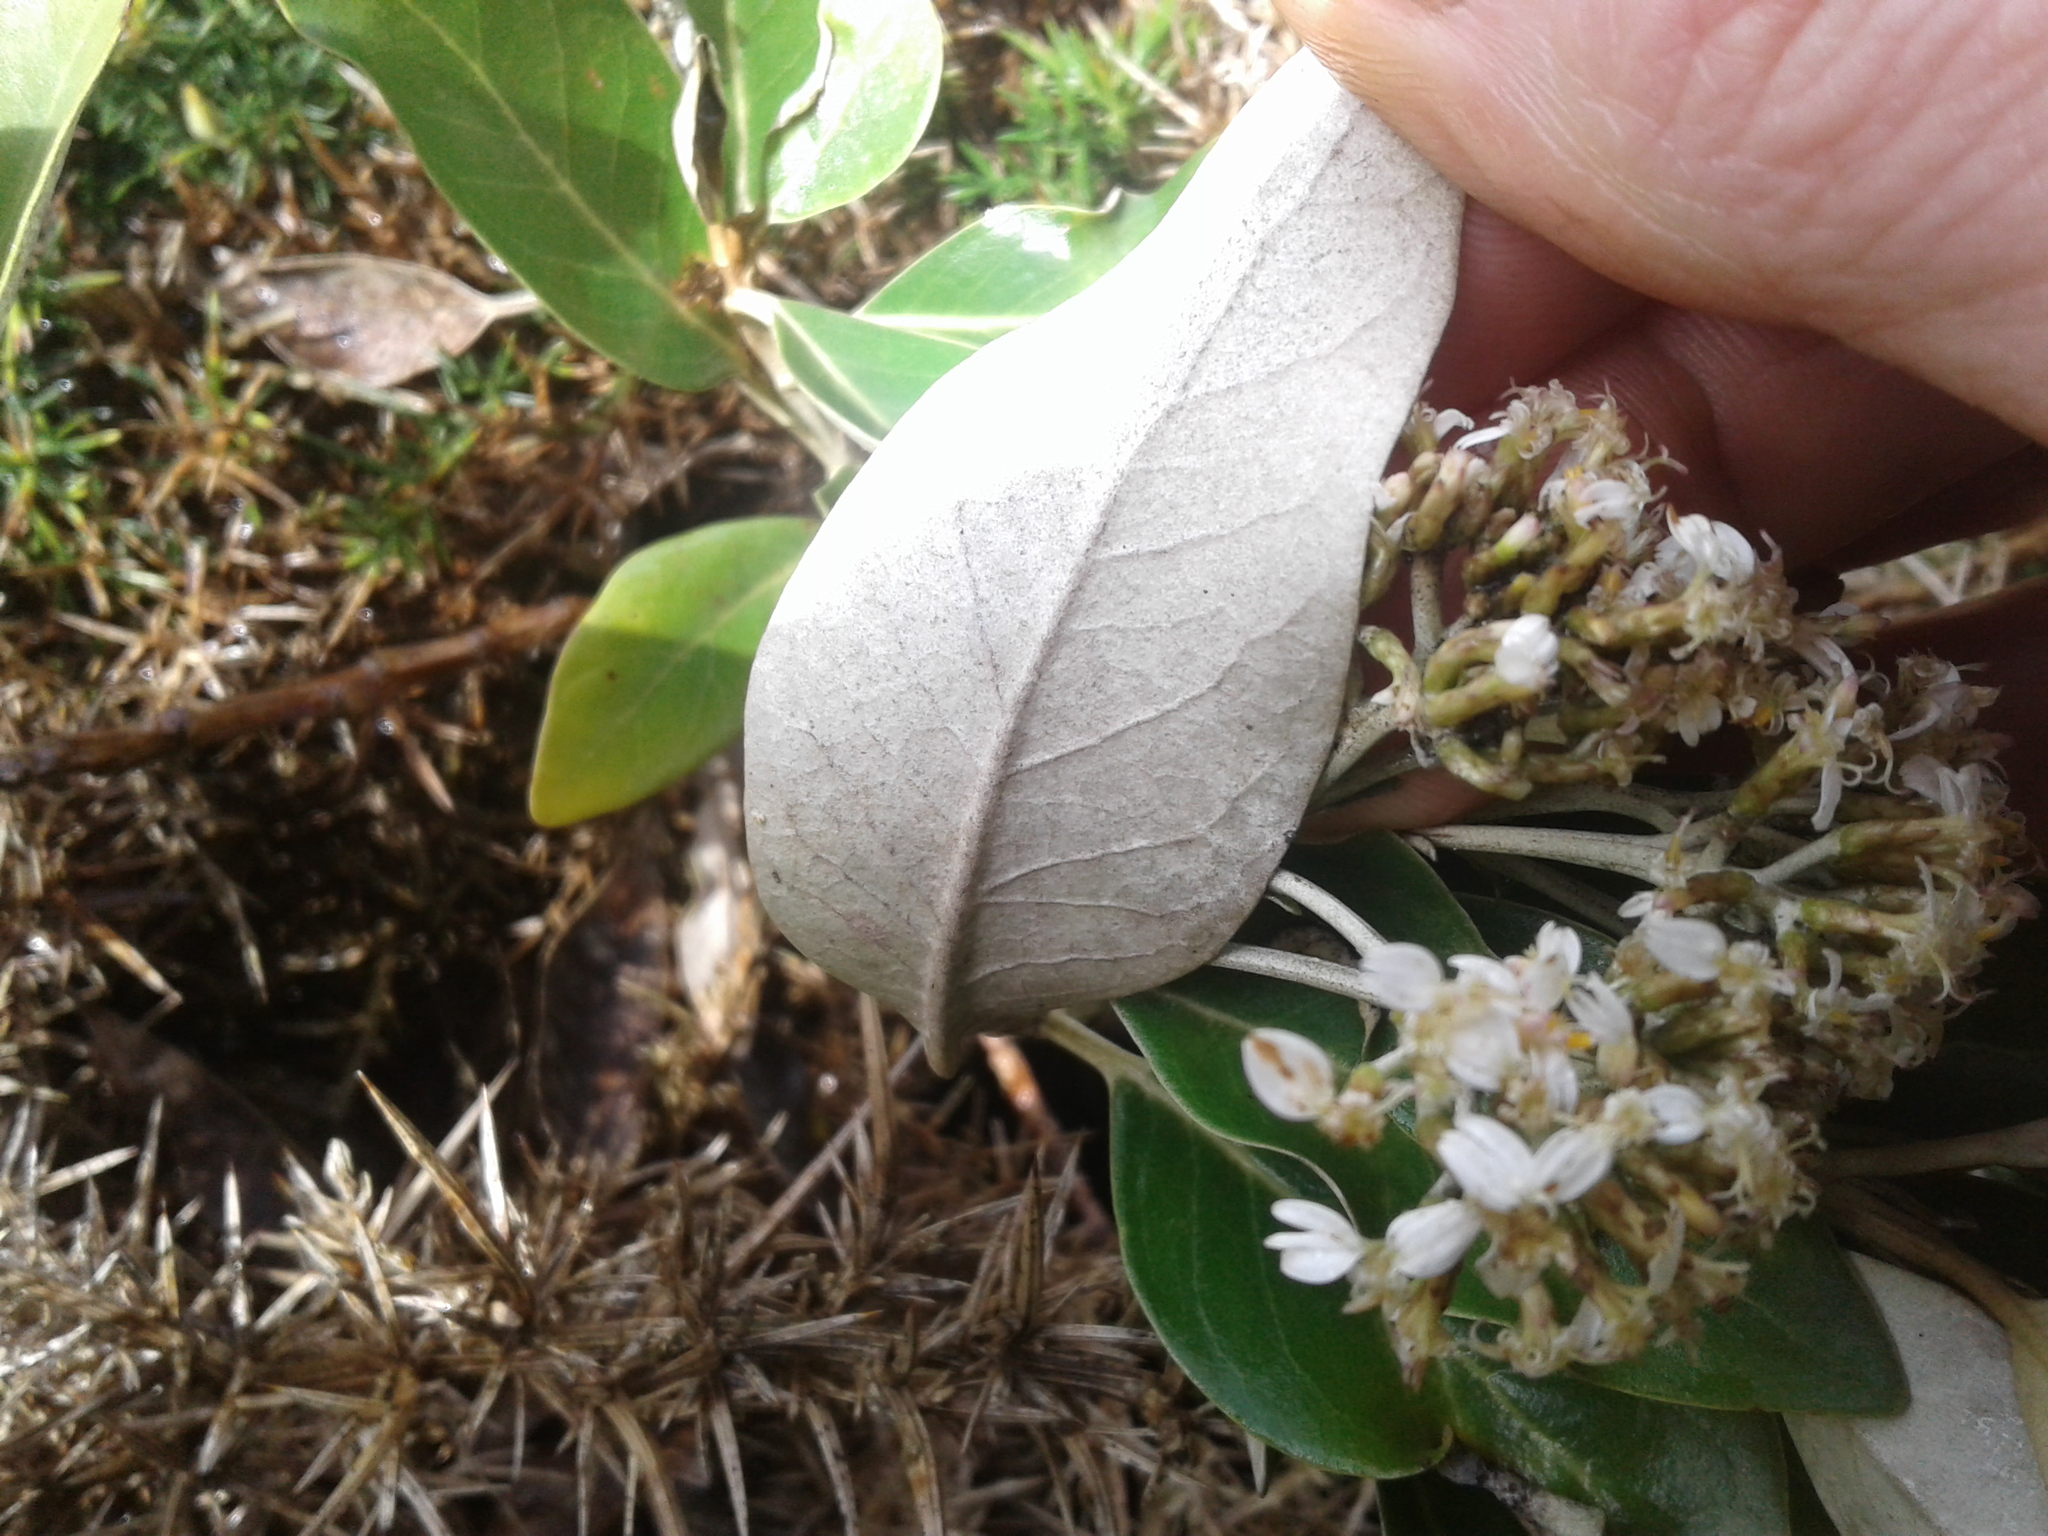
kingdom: Plantae
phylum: Tracheophyta
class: Magnoliopsida
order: Asterales
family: Asteraceae
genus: Olearia
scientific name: Olearia avicenniifolia
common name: Mangrove-leaf daisybush
